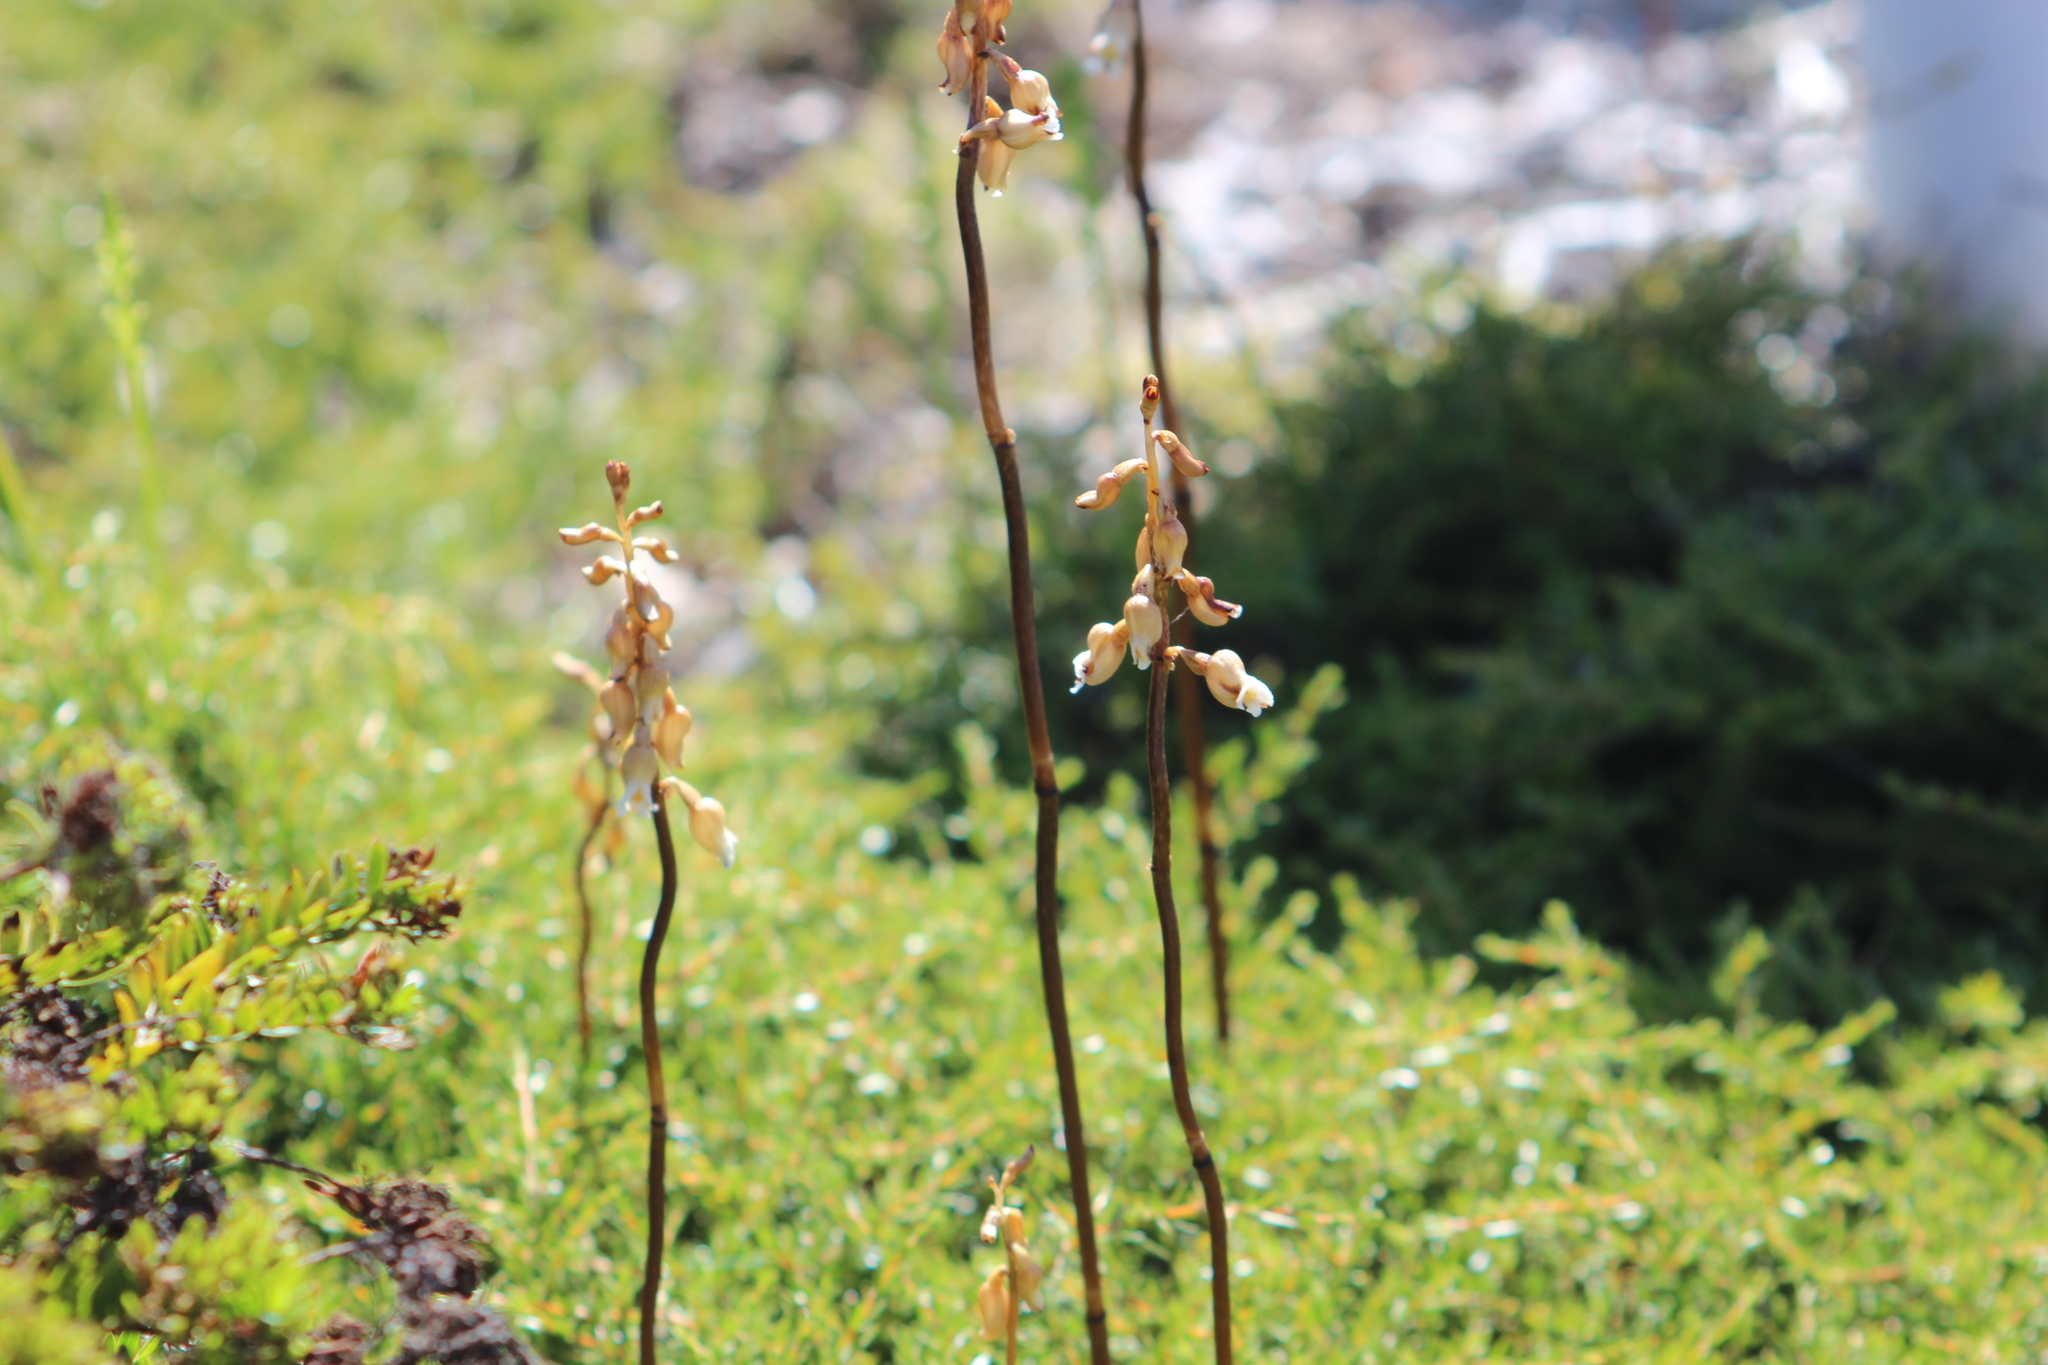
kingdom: Plantae
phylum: Tracheophyta
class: Liliopsida
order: Asparagales
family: Orchidaceae
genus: Gastrodia
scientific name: Gastrodia sesamoides
